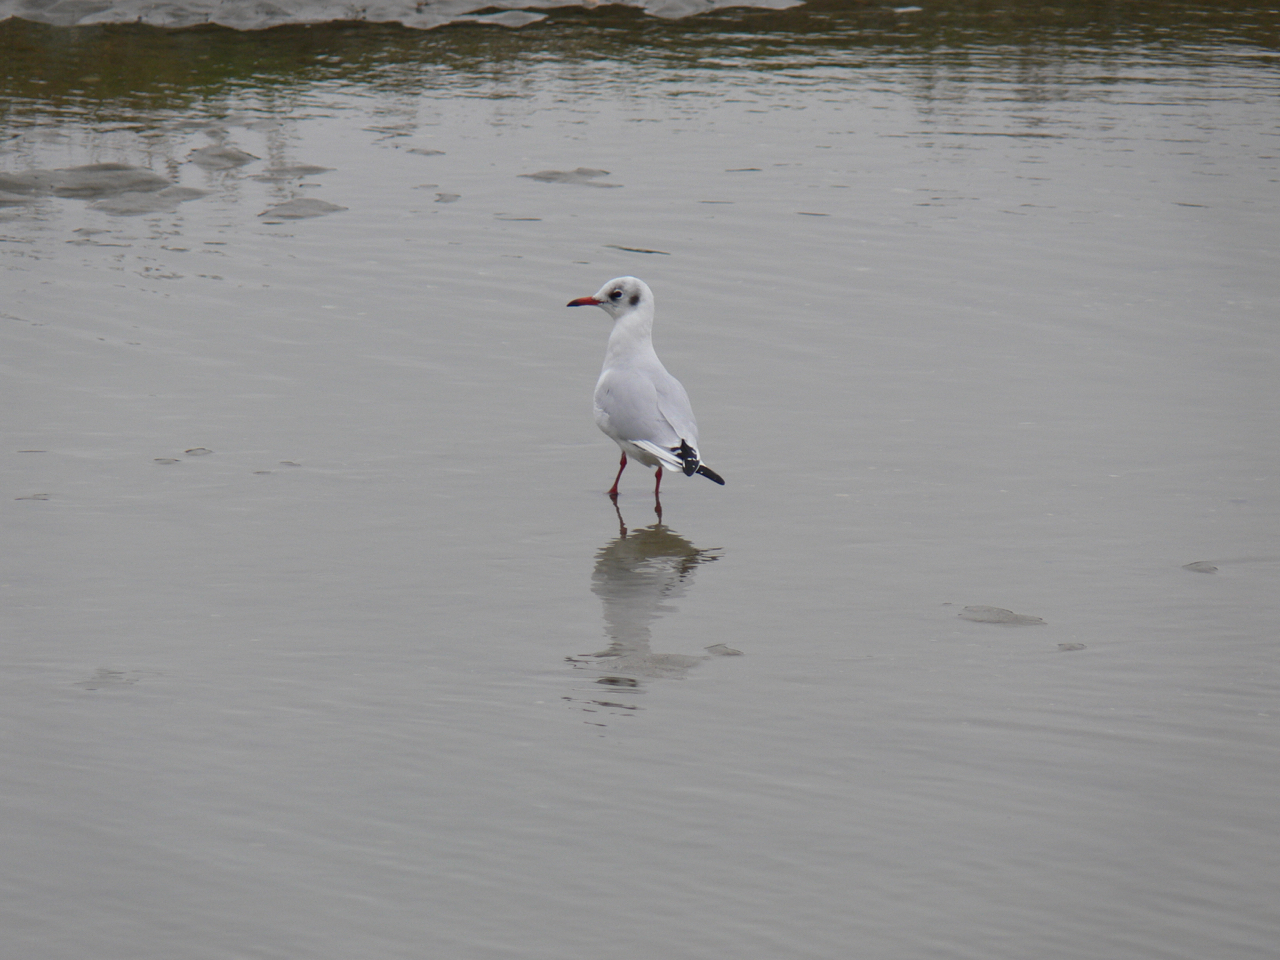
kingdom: Animalia
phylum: Chordata
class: Aves
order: Charadriiformes
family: Laridae
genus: Chroicocephalus
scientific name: Chroicocephalus ridibundus
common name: Black-headed gull
